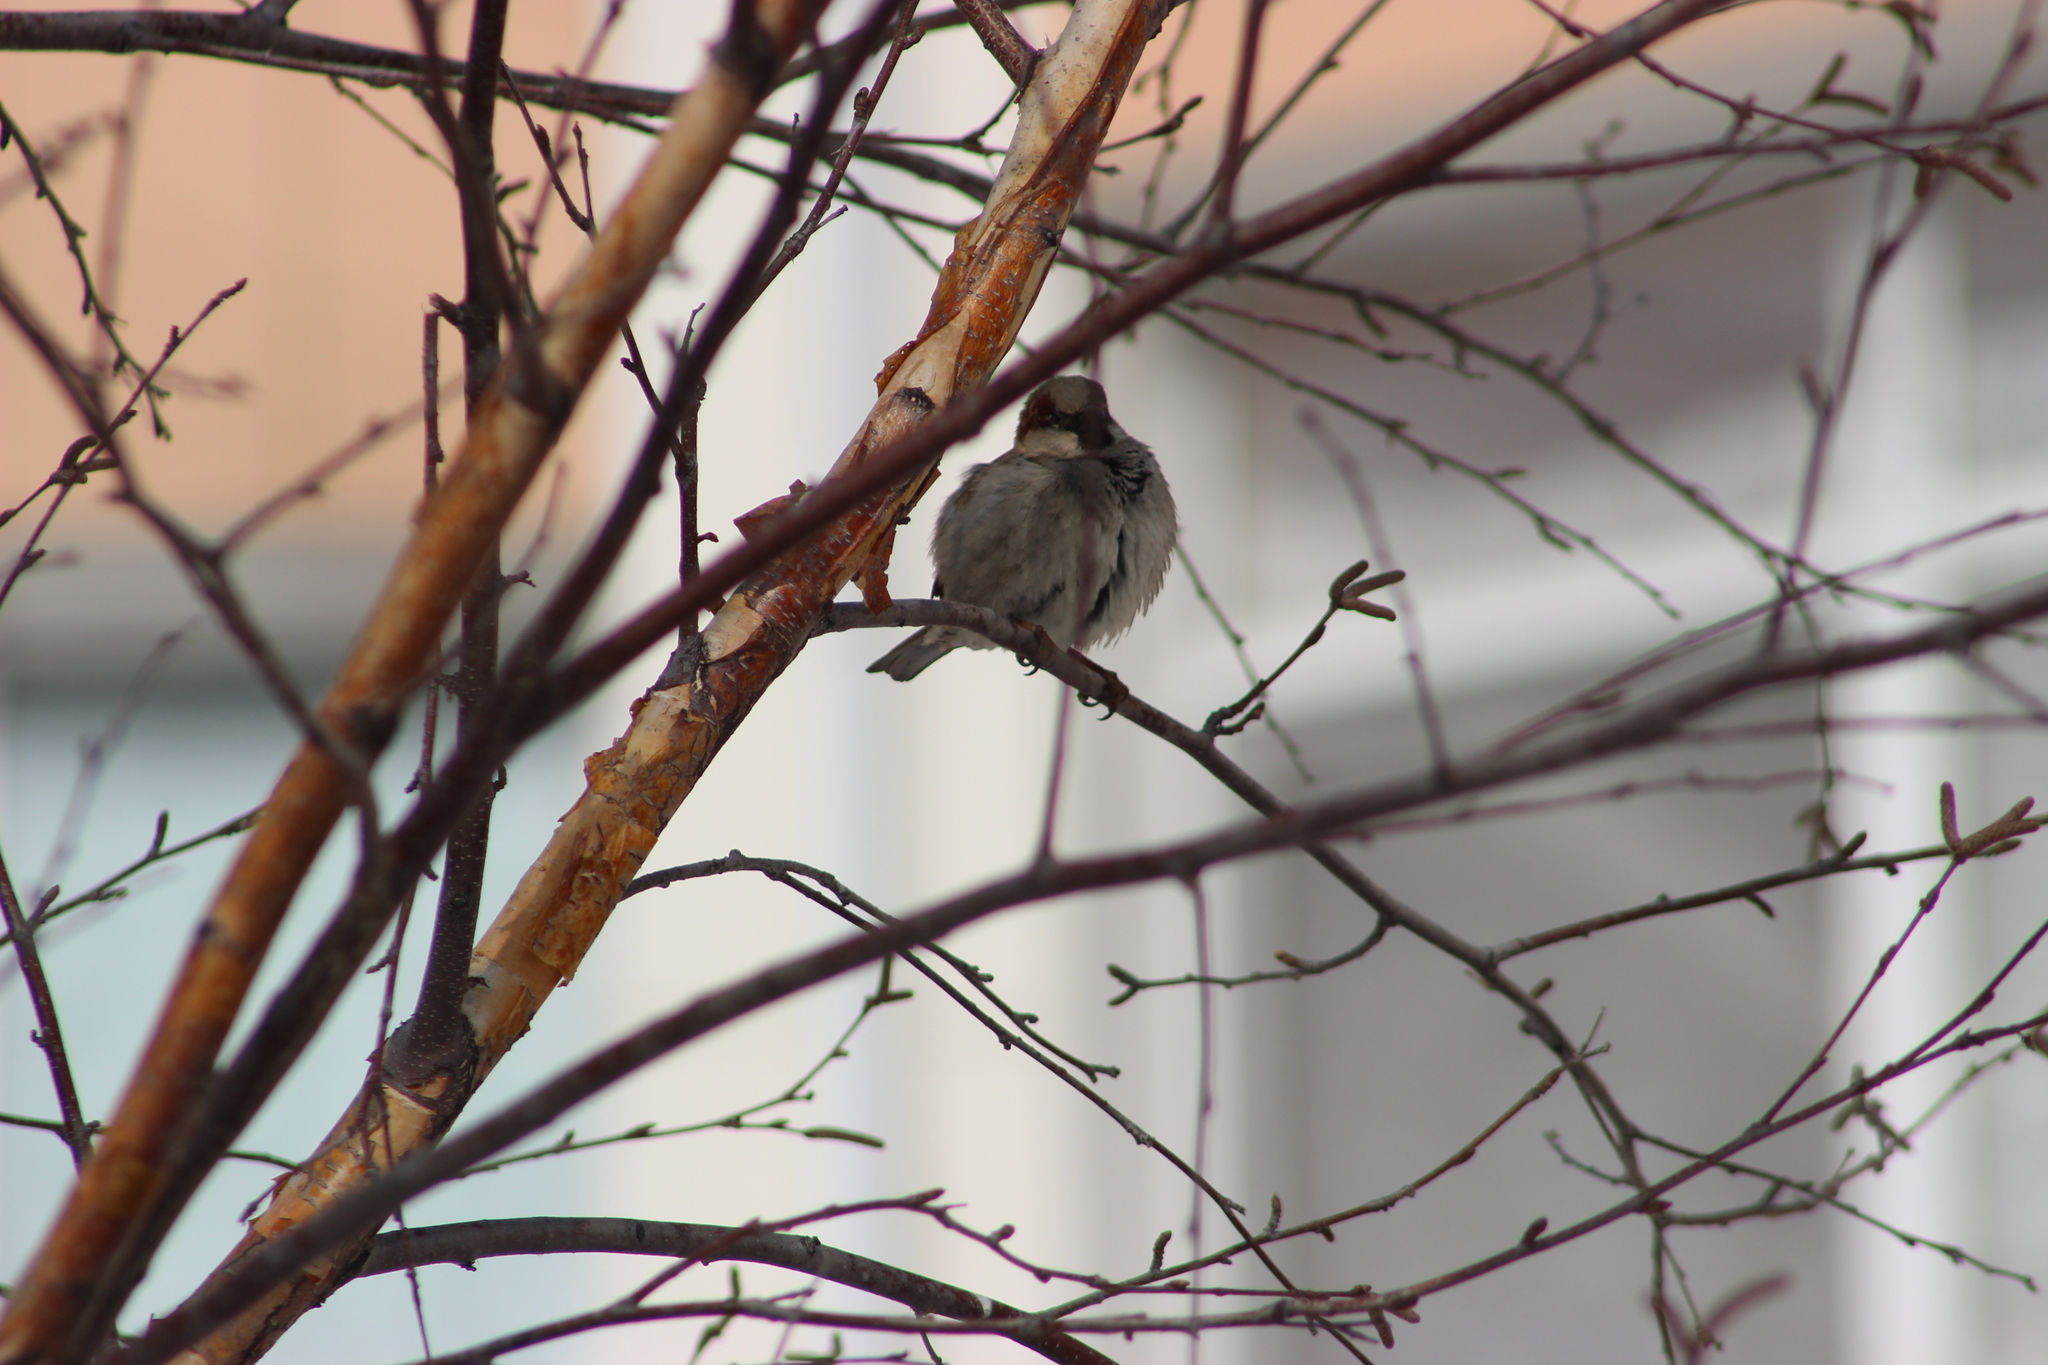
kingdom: Animalia
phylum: Chordata
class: Aves
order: Passeriformes
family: Passeridae
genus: Passer
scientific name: Passer domesticus
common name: House sparrow
